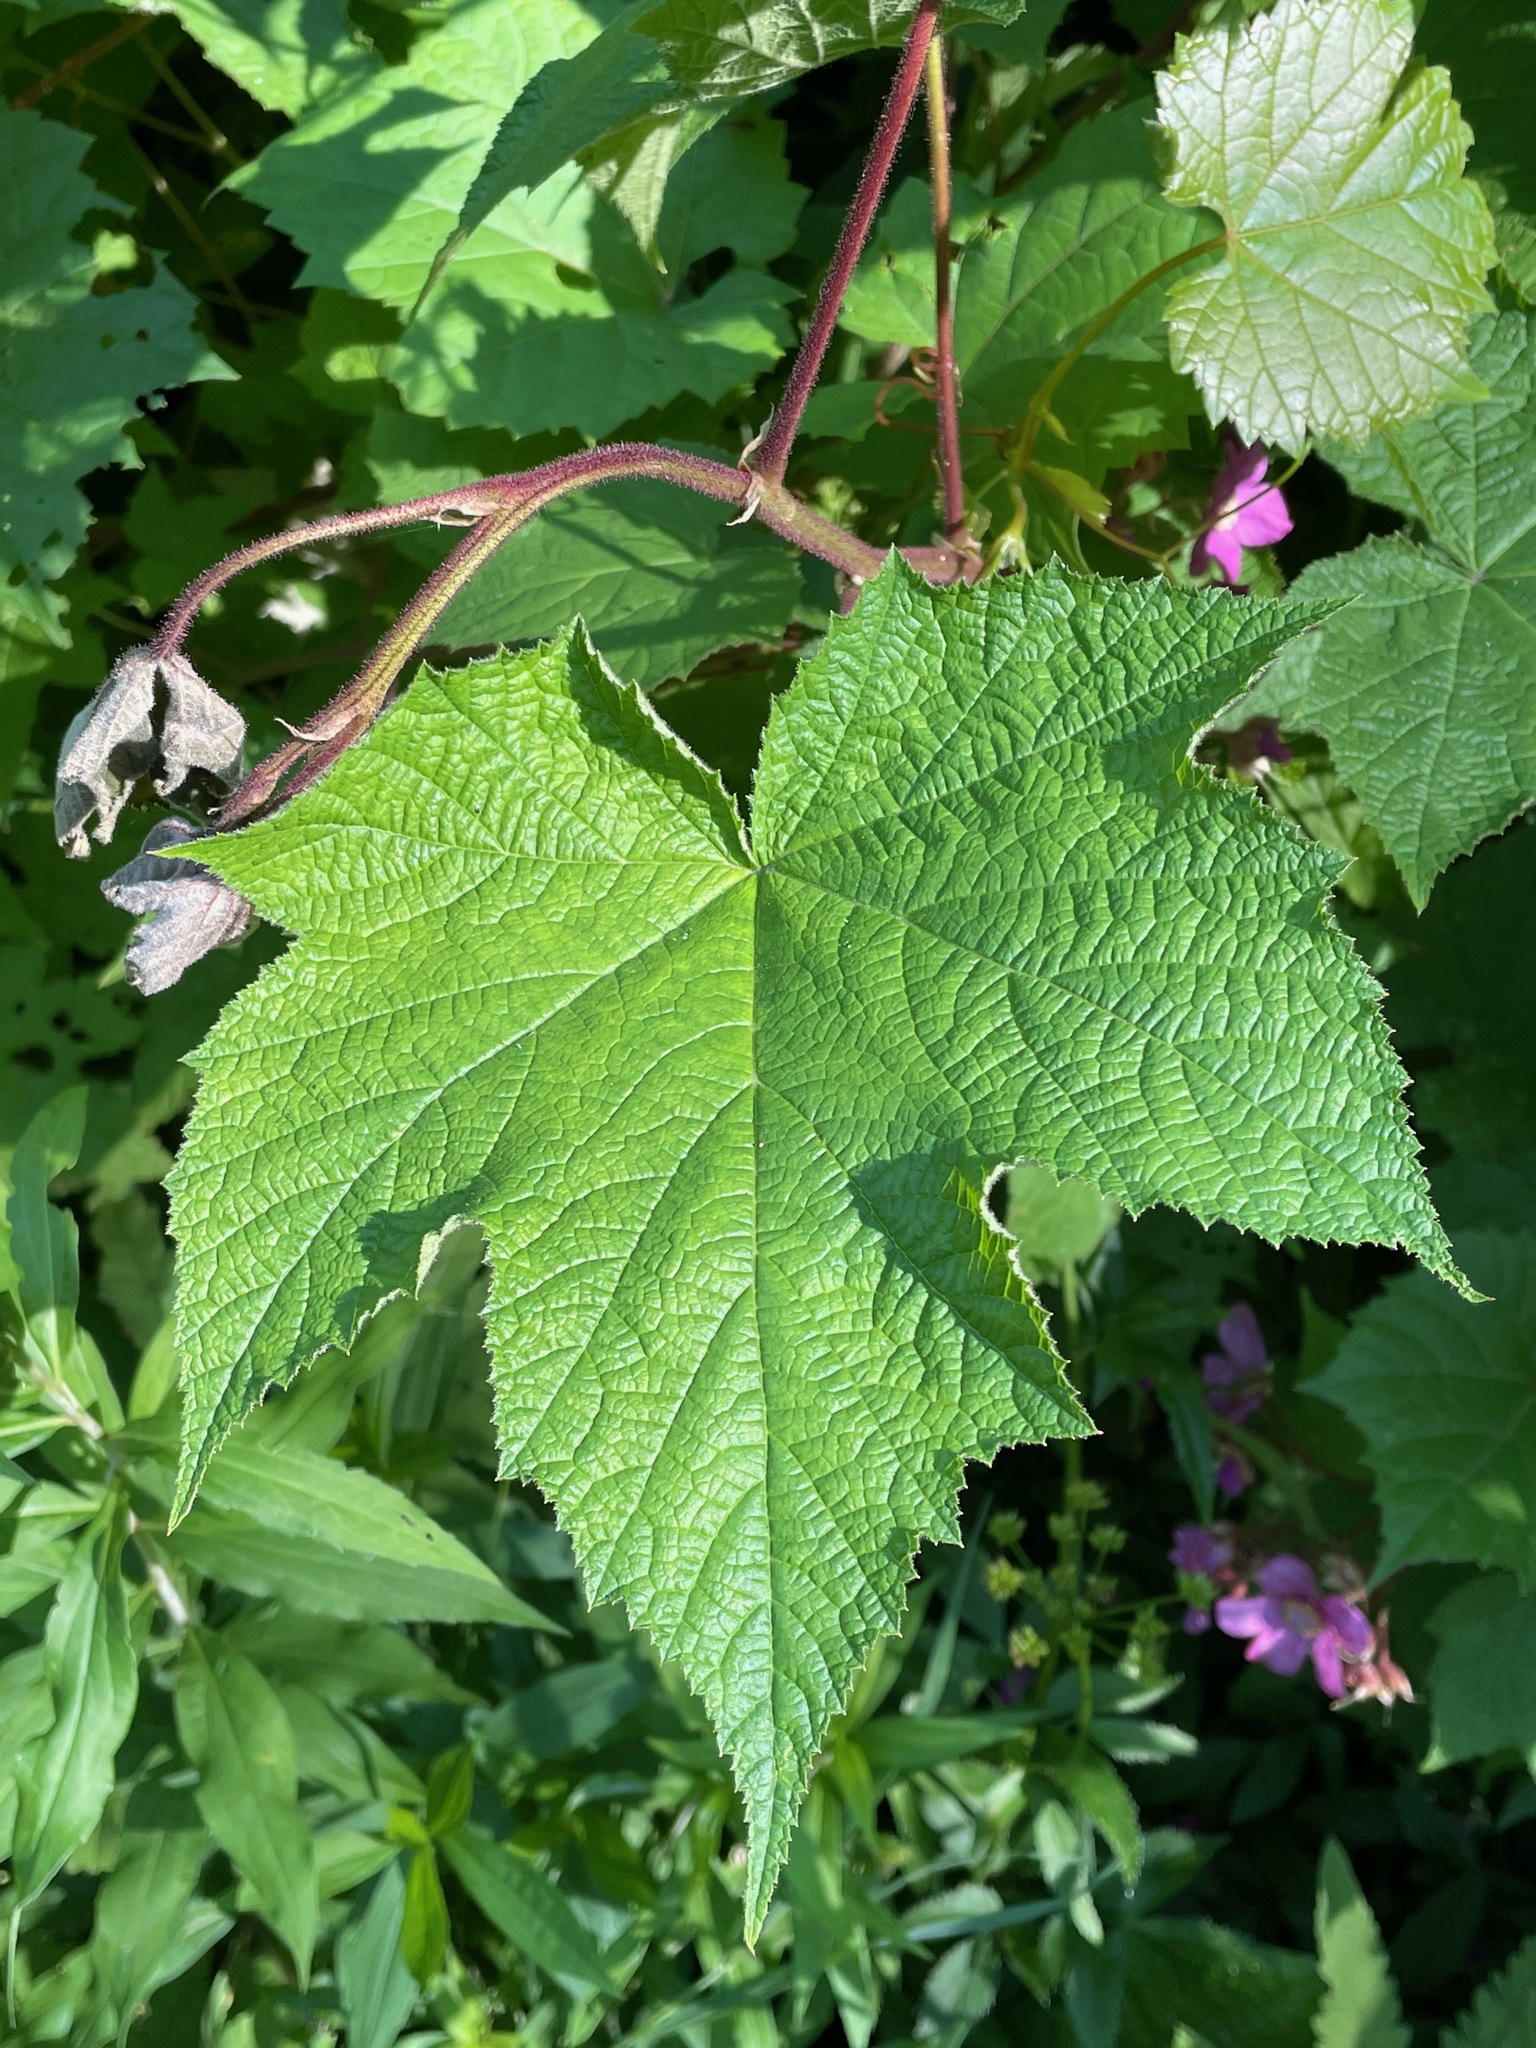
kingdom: Plantae
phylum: Tracheophyta
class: Magnoliopsida
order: Rosales
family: Rosaceae
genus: Rubus
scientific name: Rubus odoratus
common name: Purple-flowered raspberry
